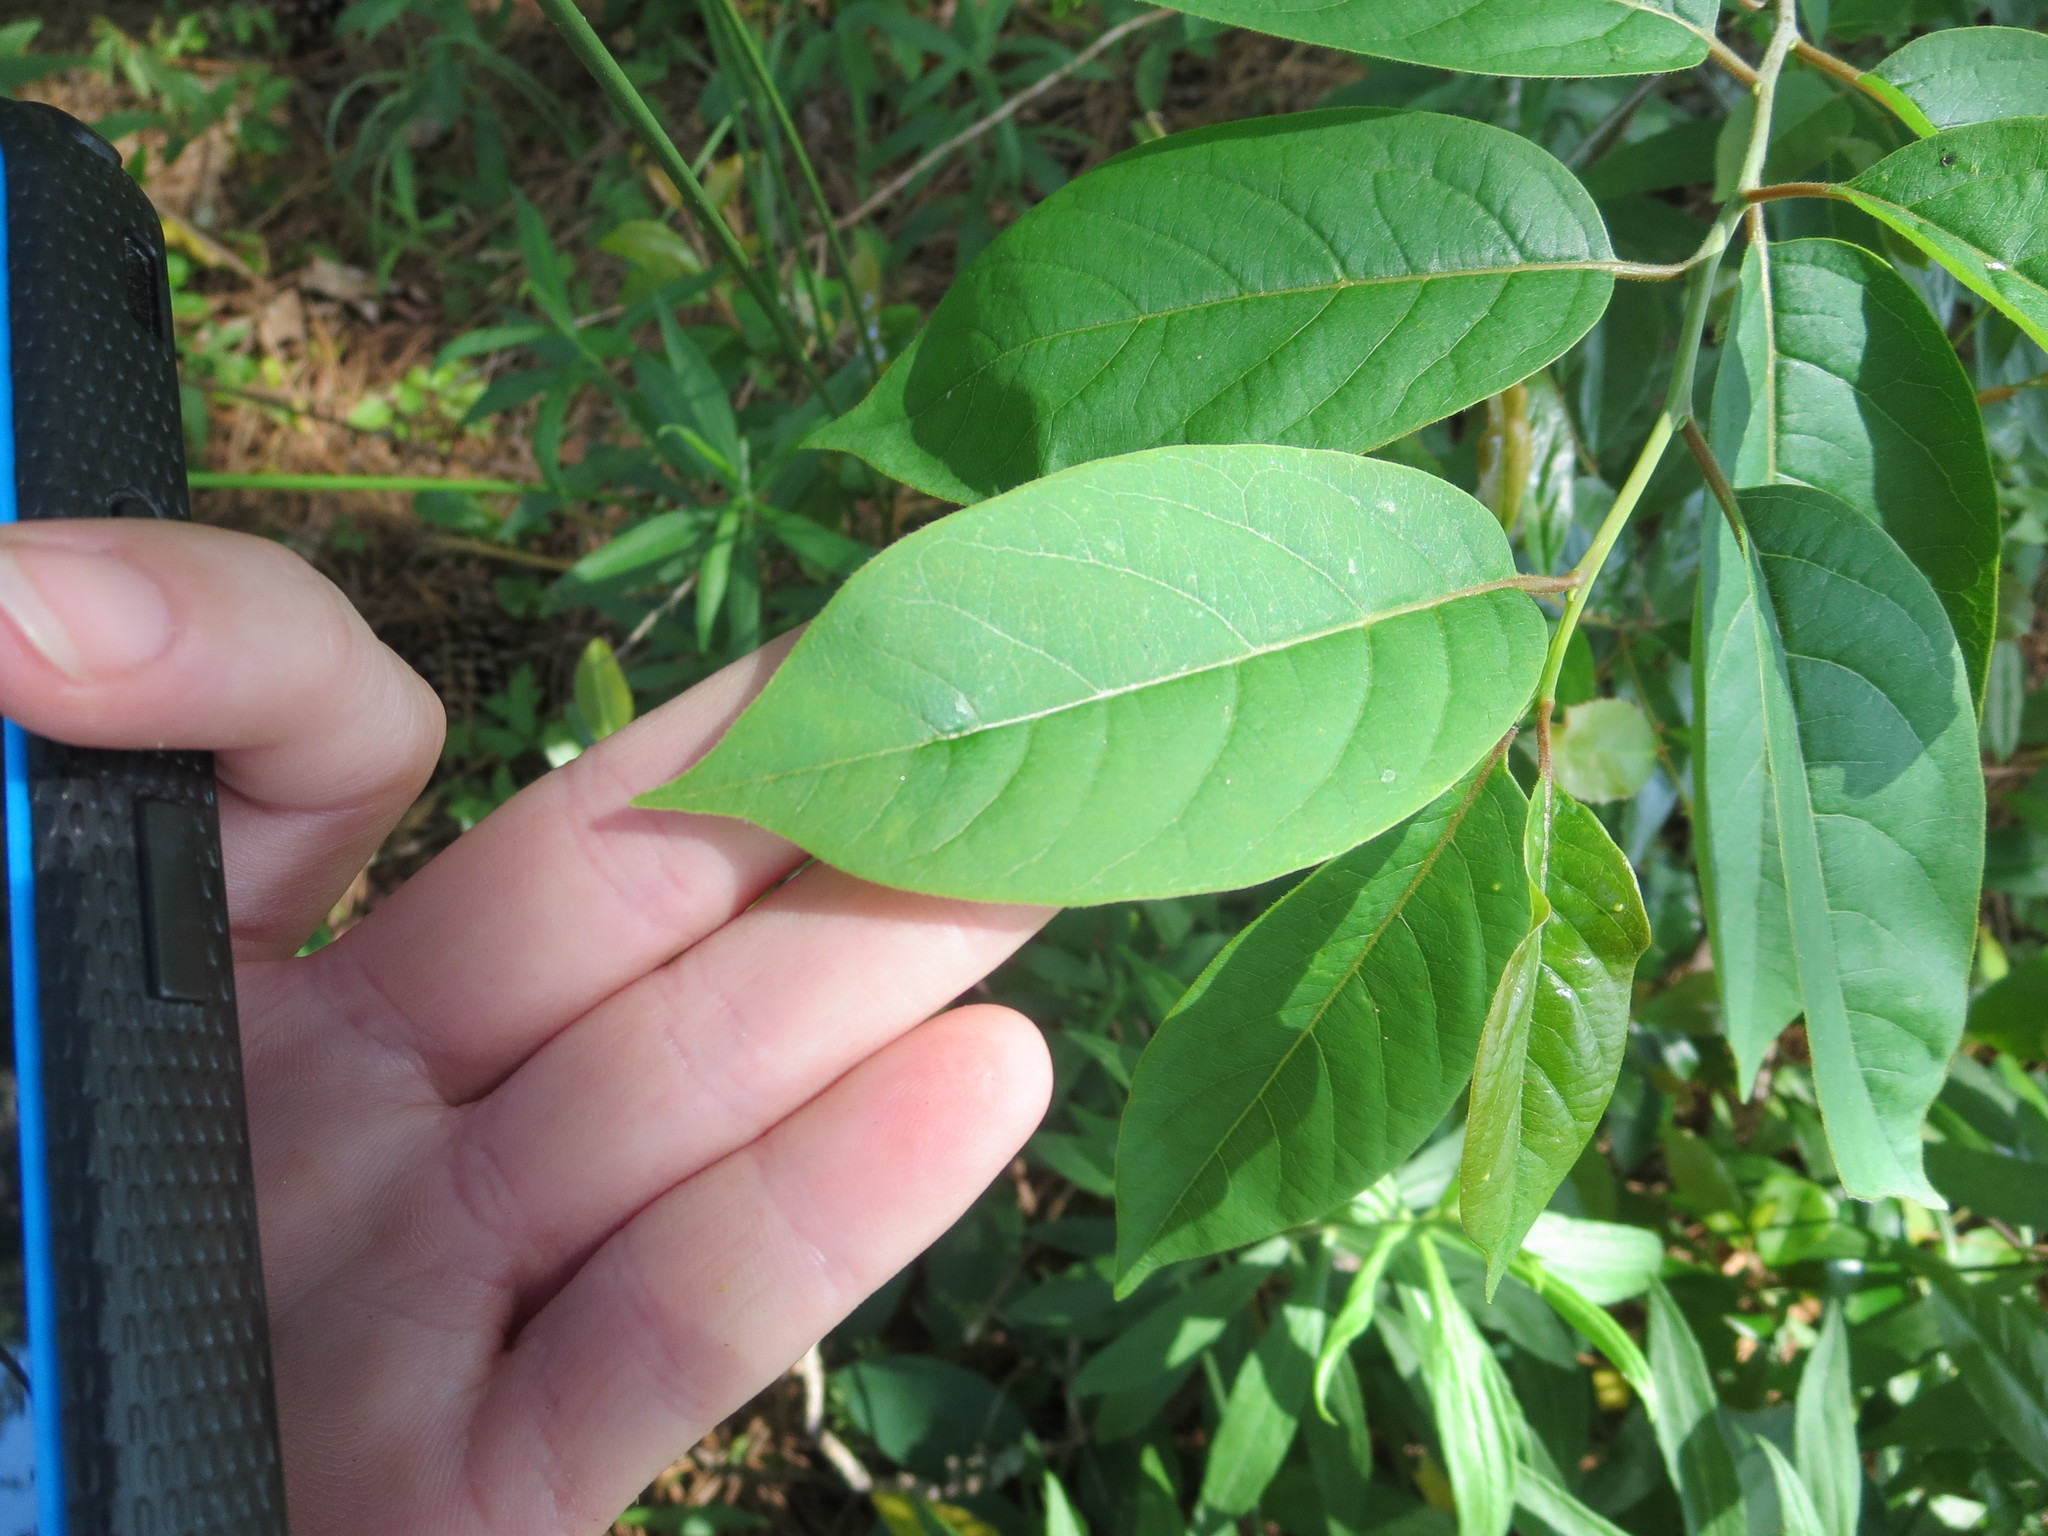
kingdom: Plantae
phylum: Tracheophyta
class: Magnoliopsida
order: Ericales
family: Ebenaceae
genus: Diospyros
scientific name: Diospyros virginiana
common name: Persimmon
